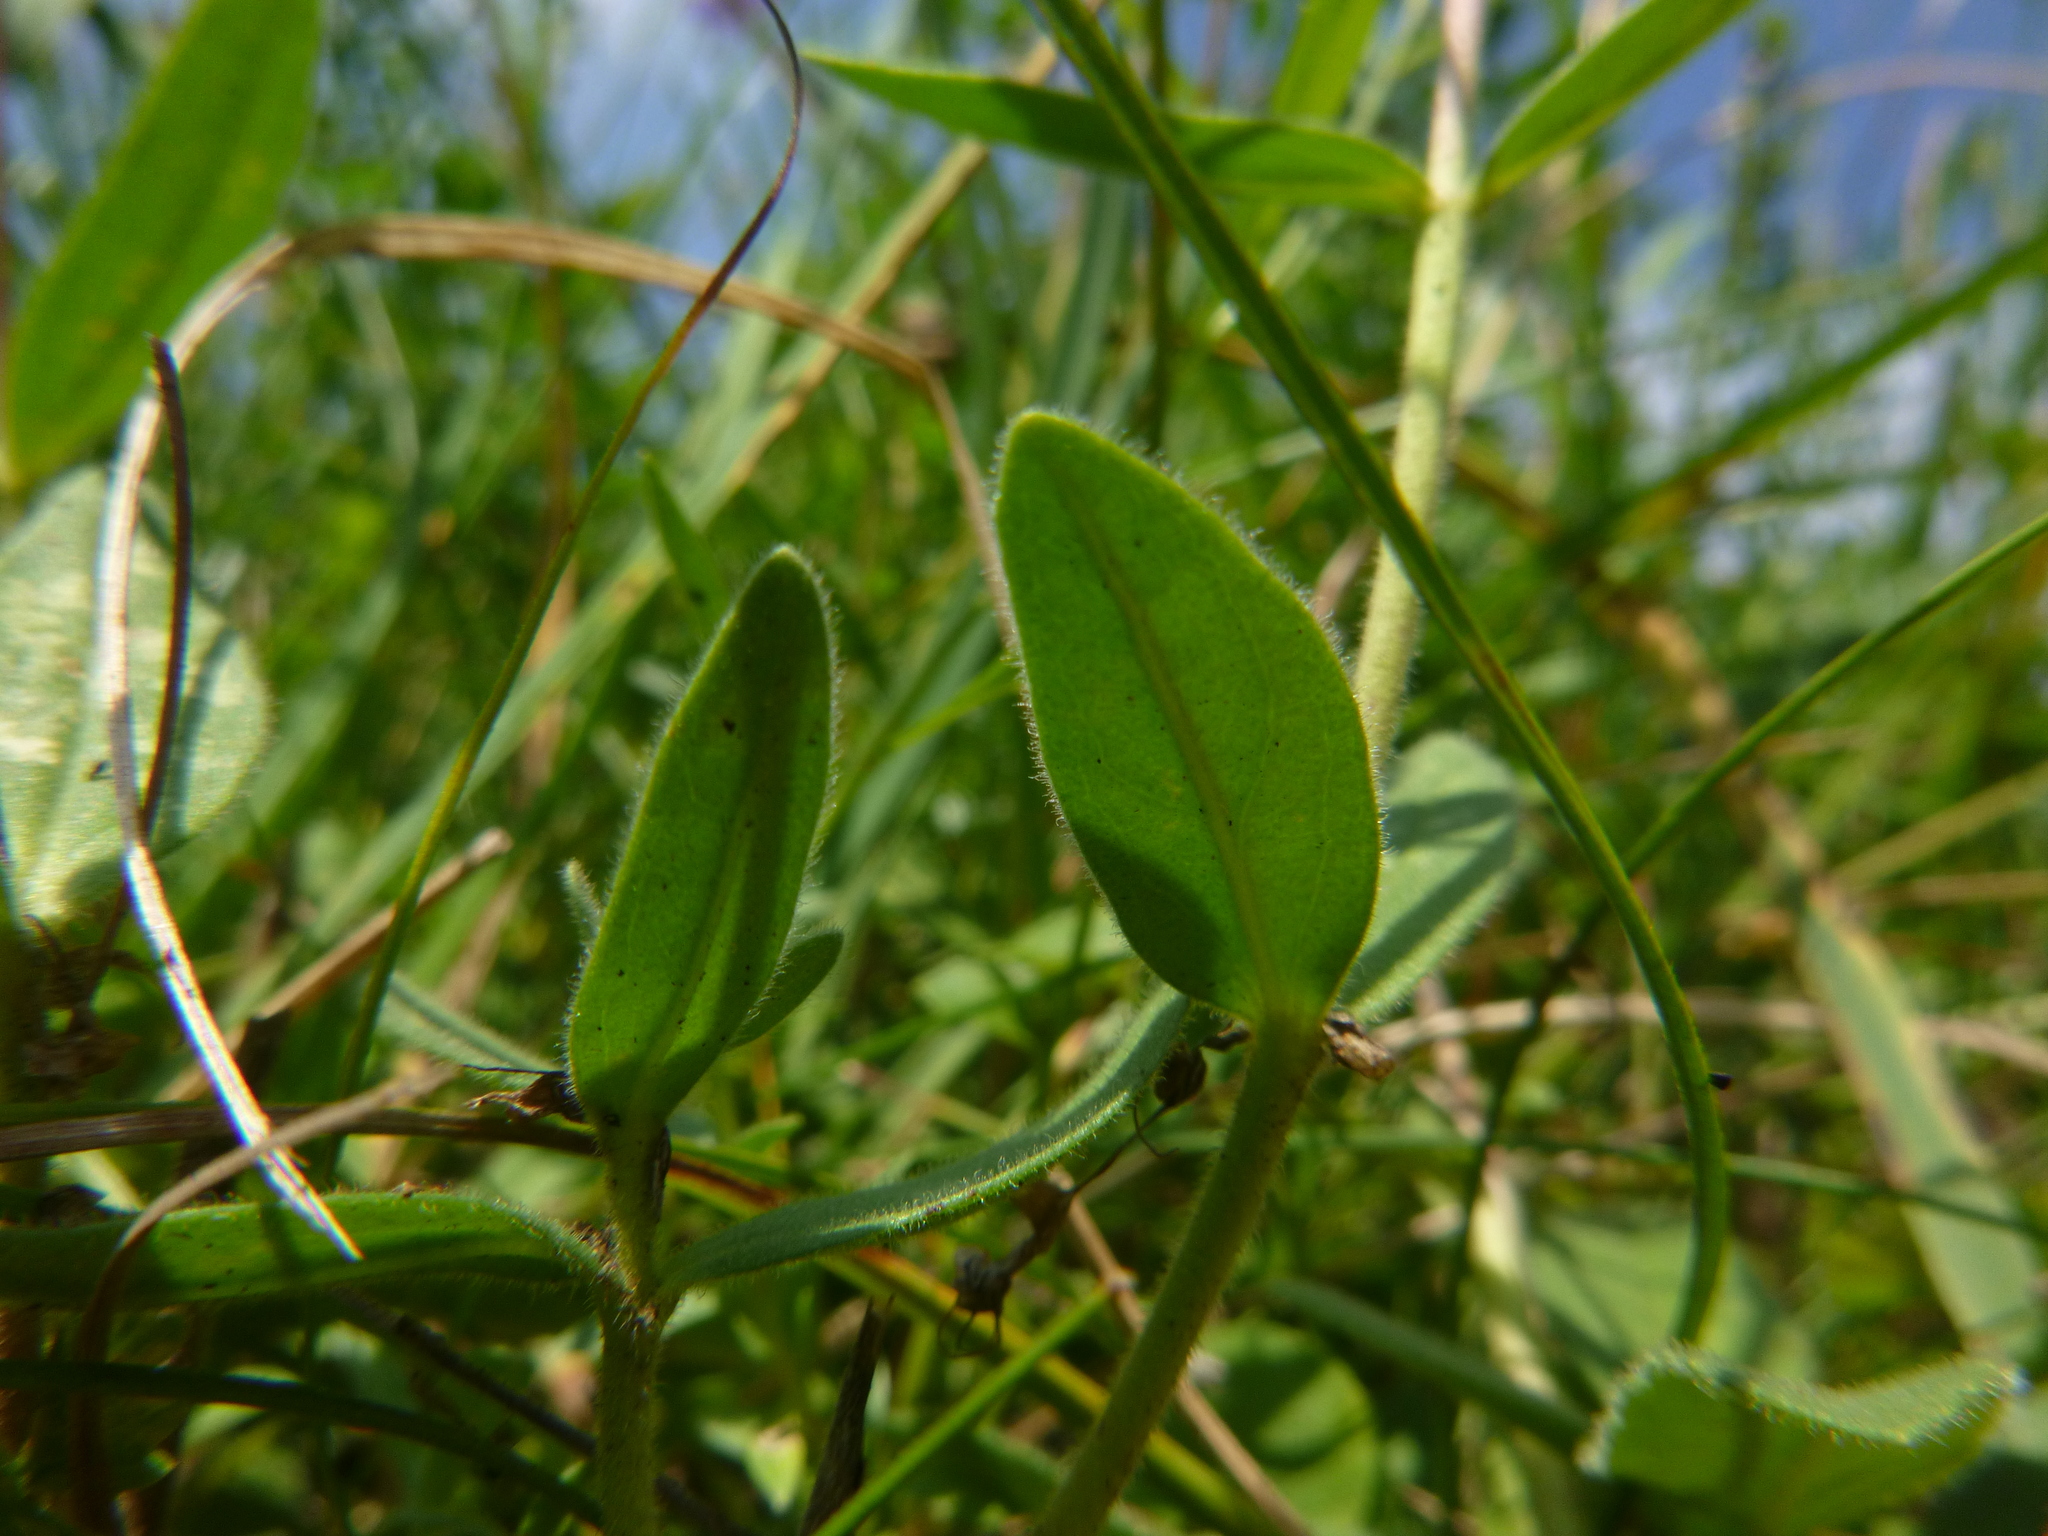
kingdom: Plantae
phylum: Tracheophyta
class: Magnoliopsida
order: Lamiales
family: Plantaginaceae
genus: Veronica
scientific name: Veronica spicata
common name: Spiked speedwell
